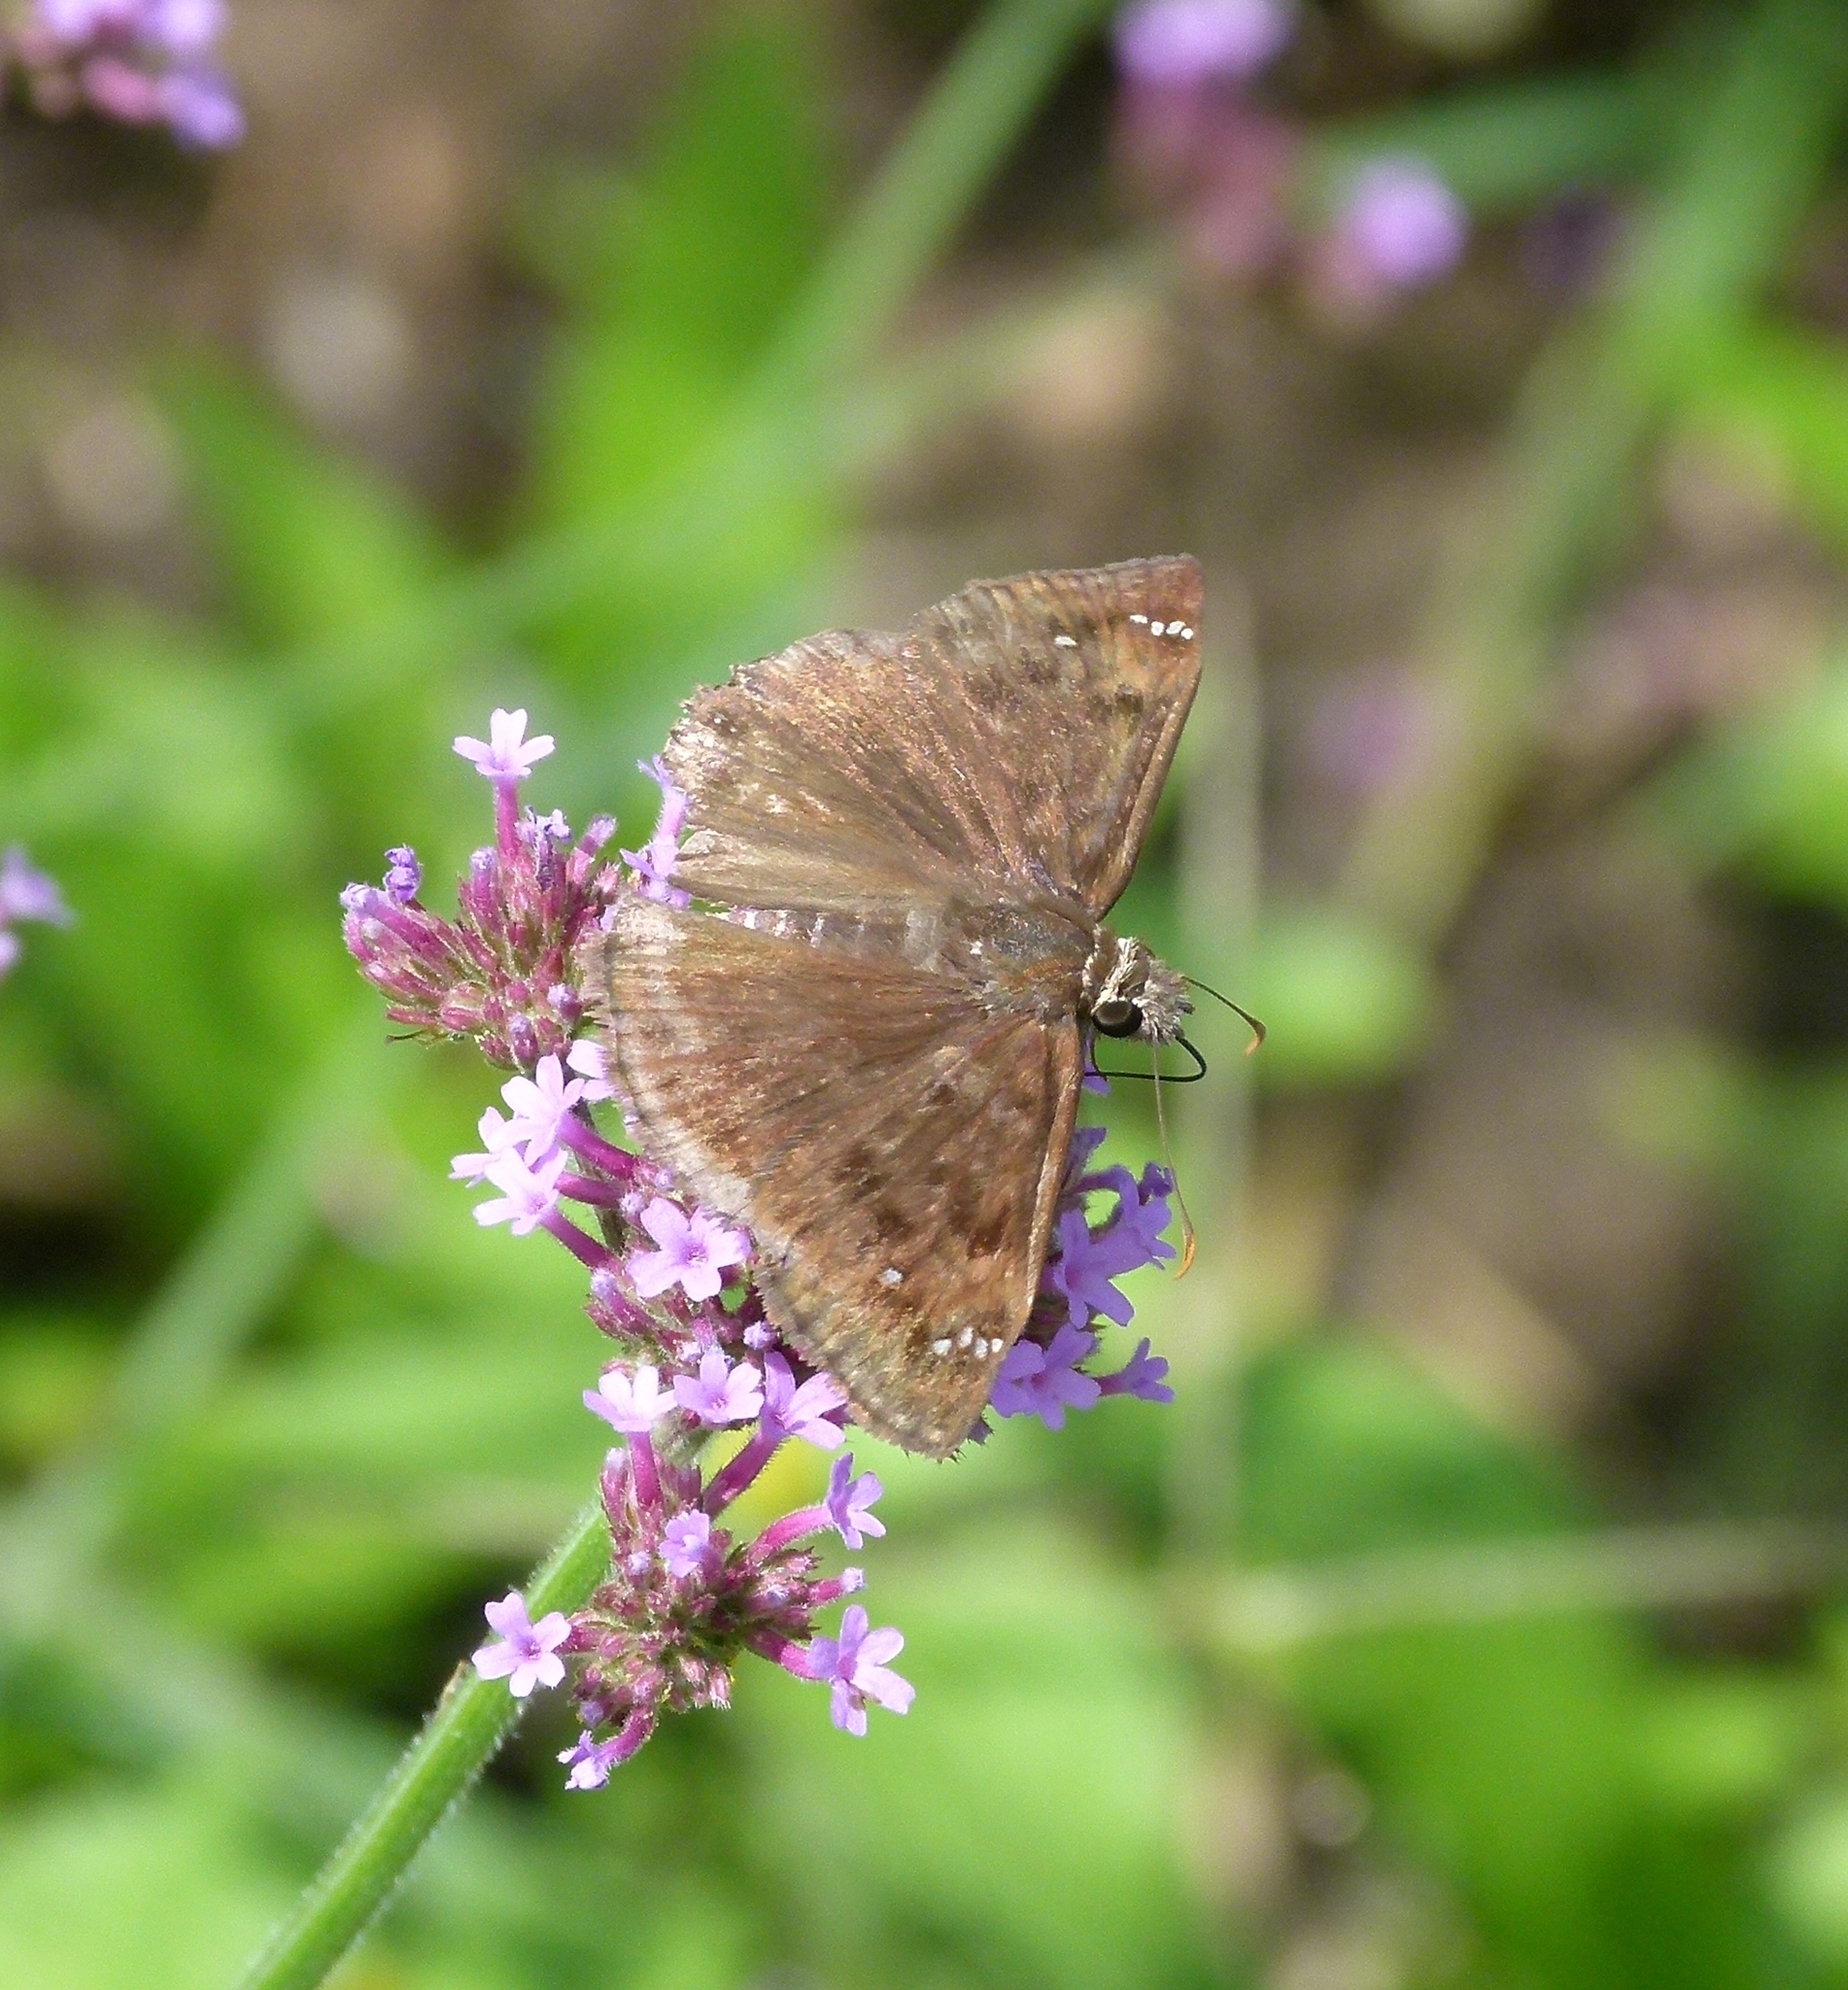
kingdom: Animalia
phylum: Arthropoda
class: Insecta
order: Lepidoptera
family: Hesperiidae
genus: Erynnis
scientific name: Erynnis baptisiae
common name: Wild indigo duskywing
